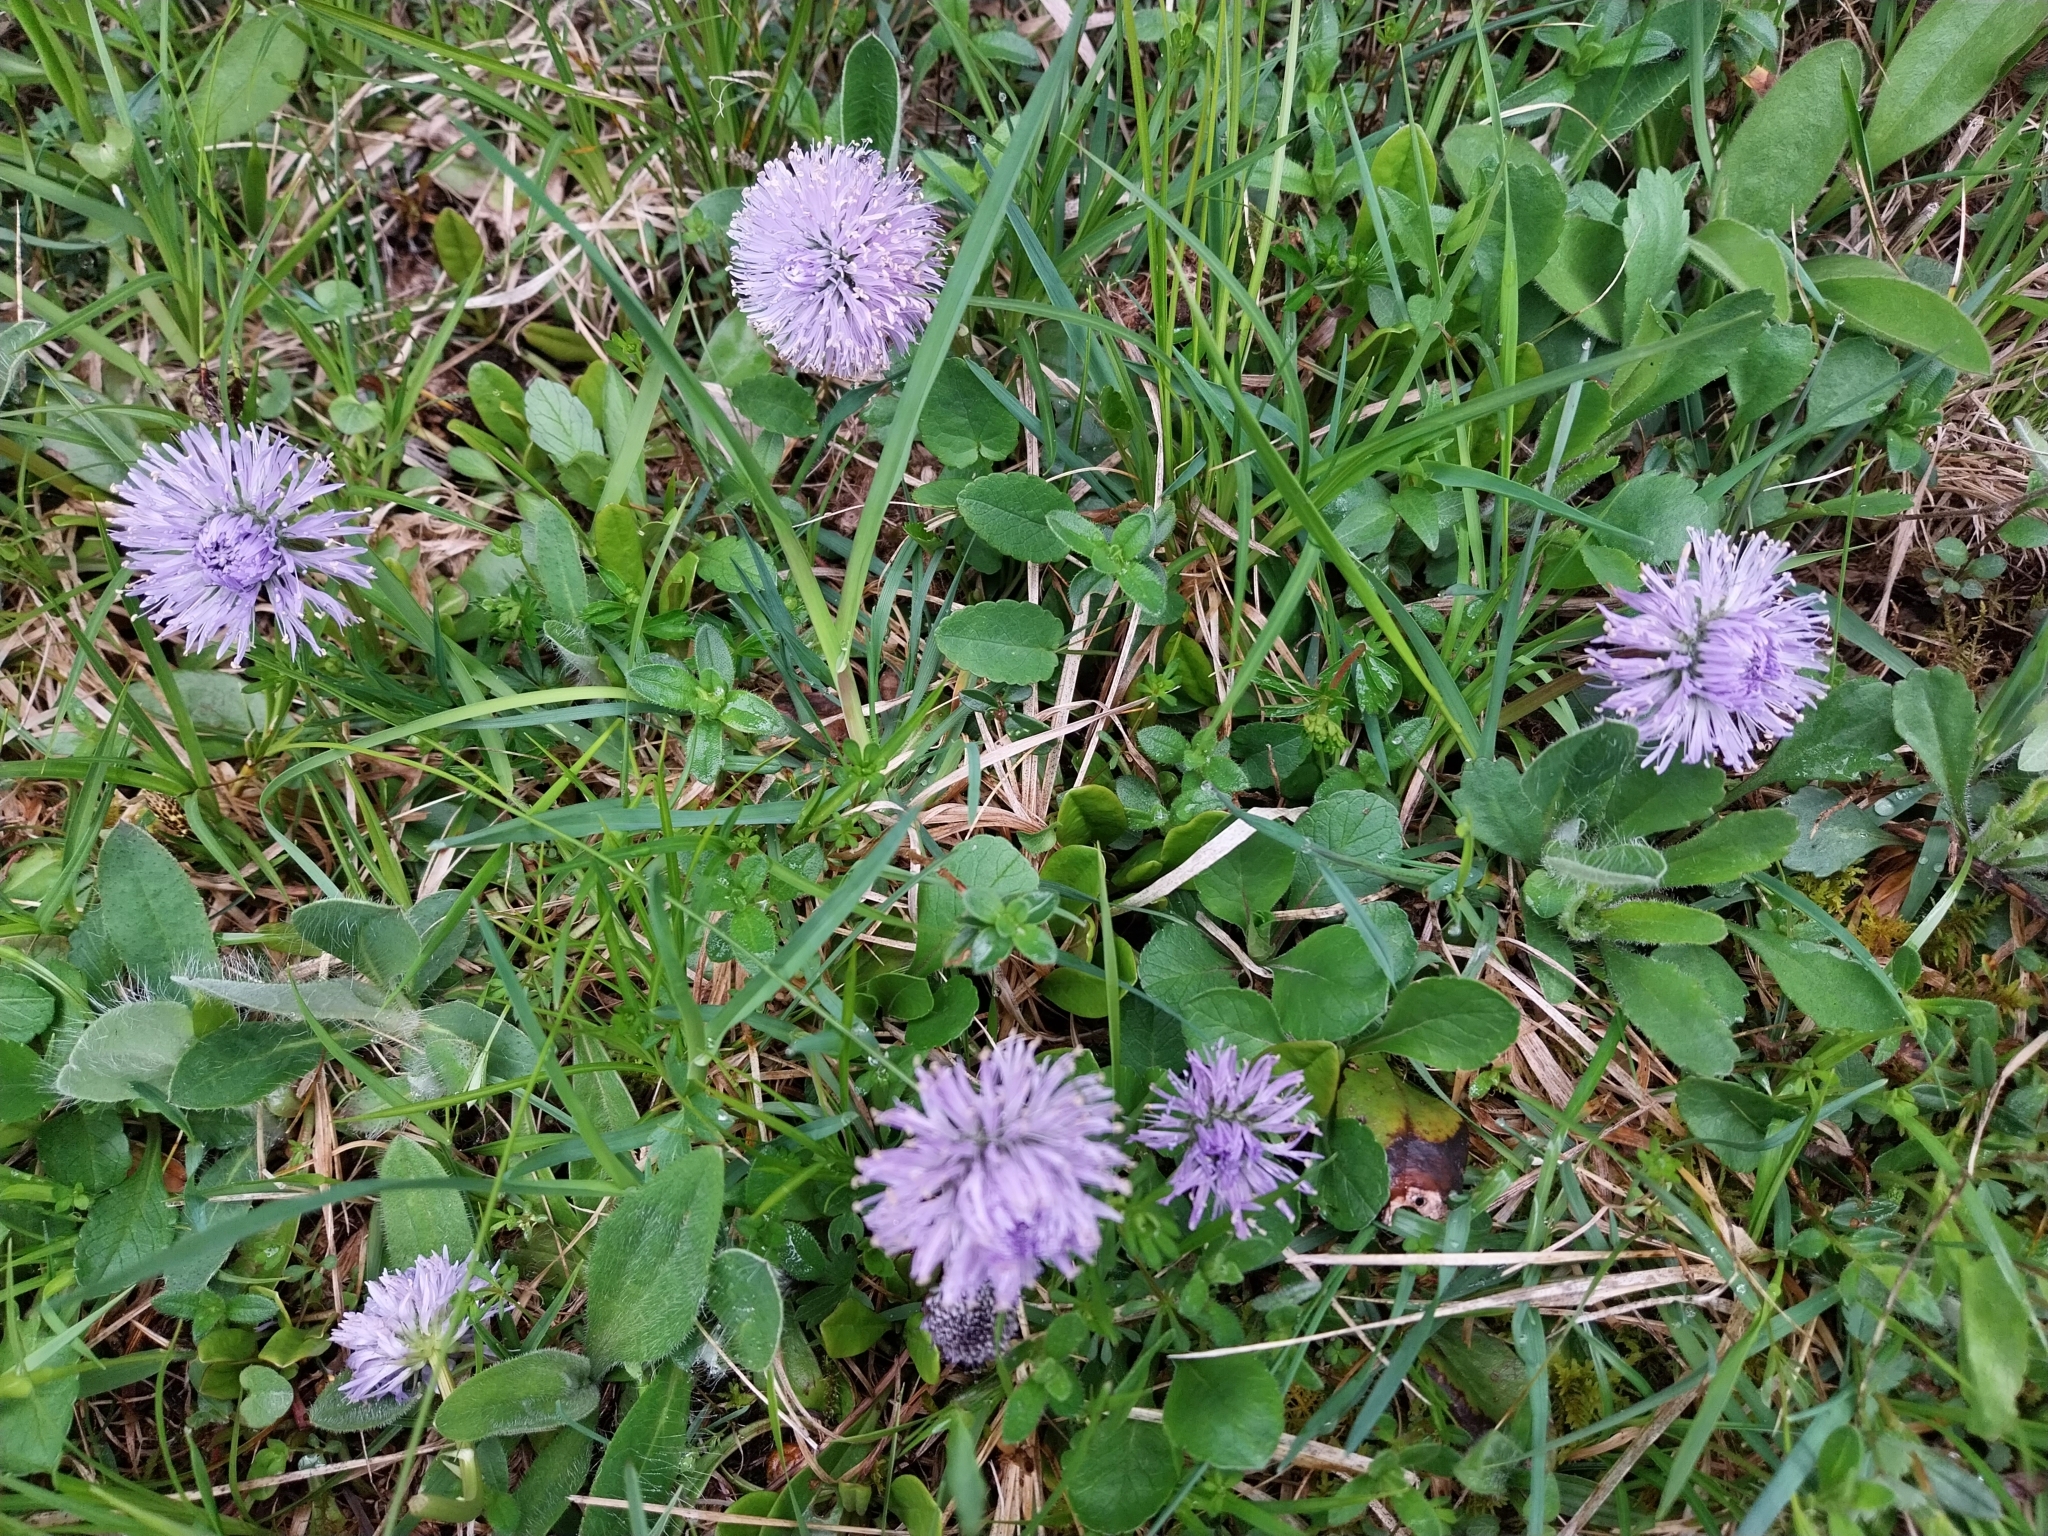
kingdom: Plantae
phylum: Tracheophyta
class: Magnoliopsida
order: Lamiales
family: Plantaginaceae
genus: Globularia
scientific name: Globularia nudicaulis
